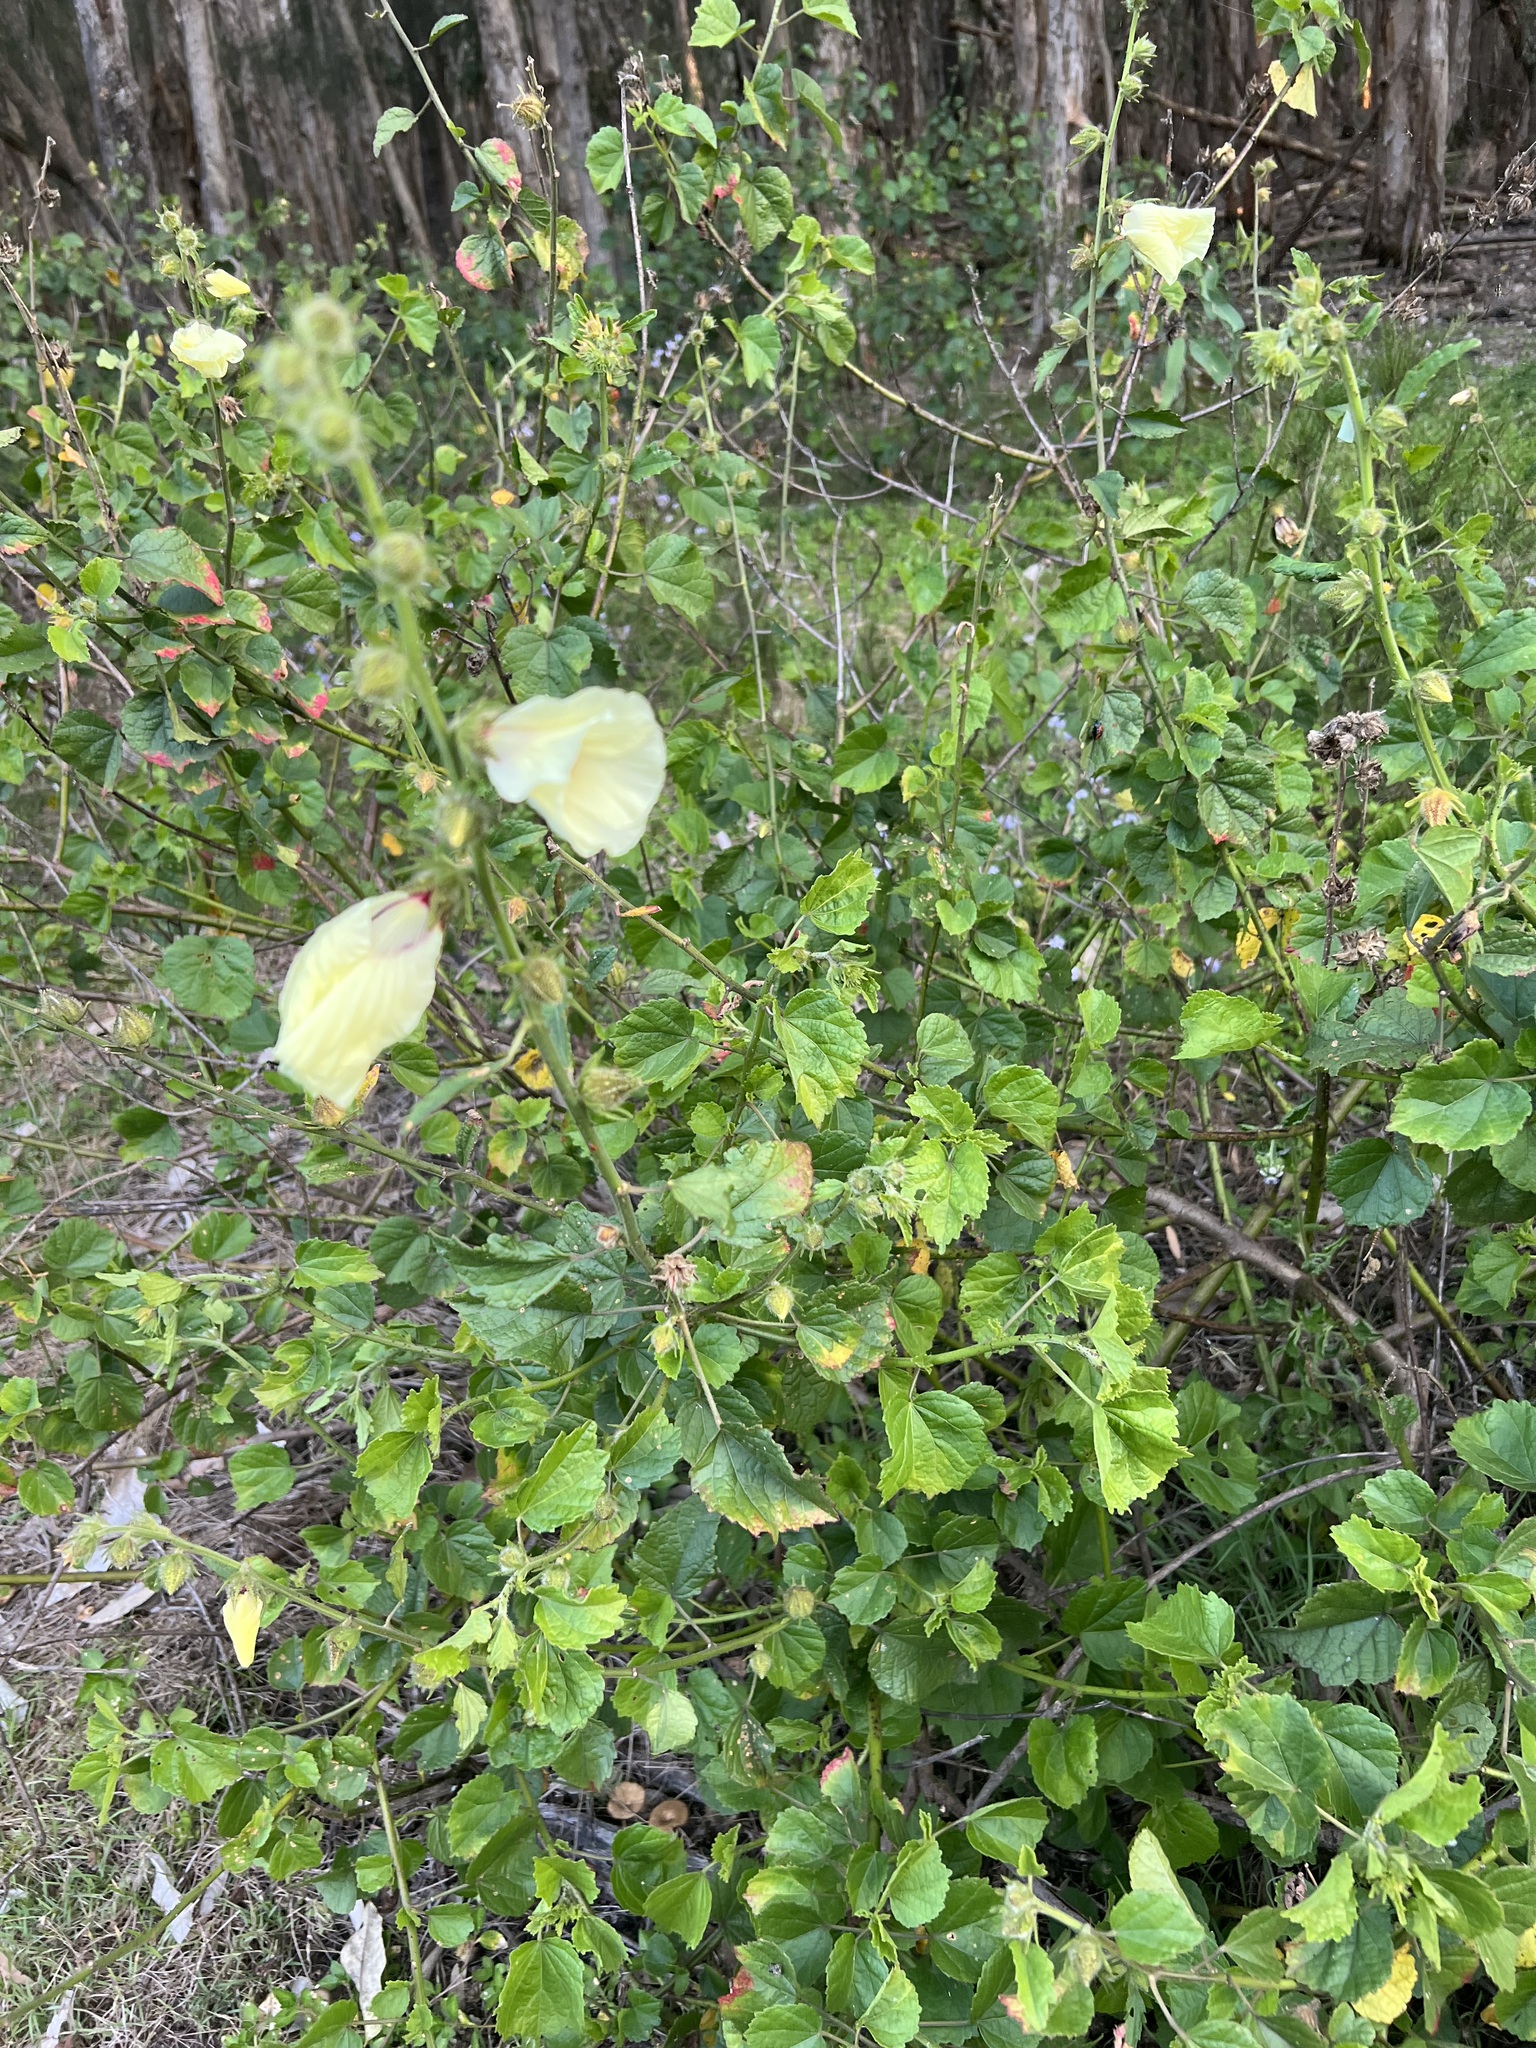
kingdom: Plantae
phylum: Tracheophyta
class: Magnoliopsida
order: Malvales
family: Malvaceae
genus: Hibiscus
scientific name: Hibiscus diversifolius
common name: Cape hibiscus
